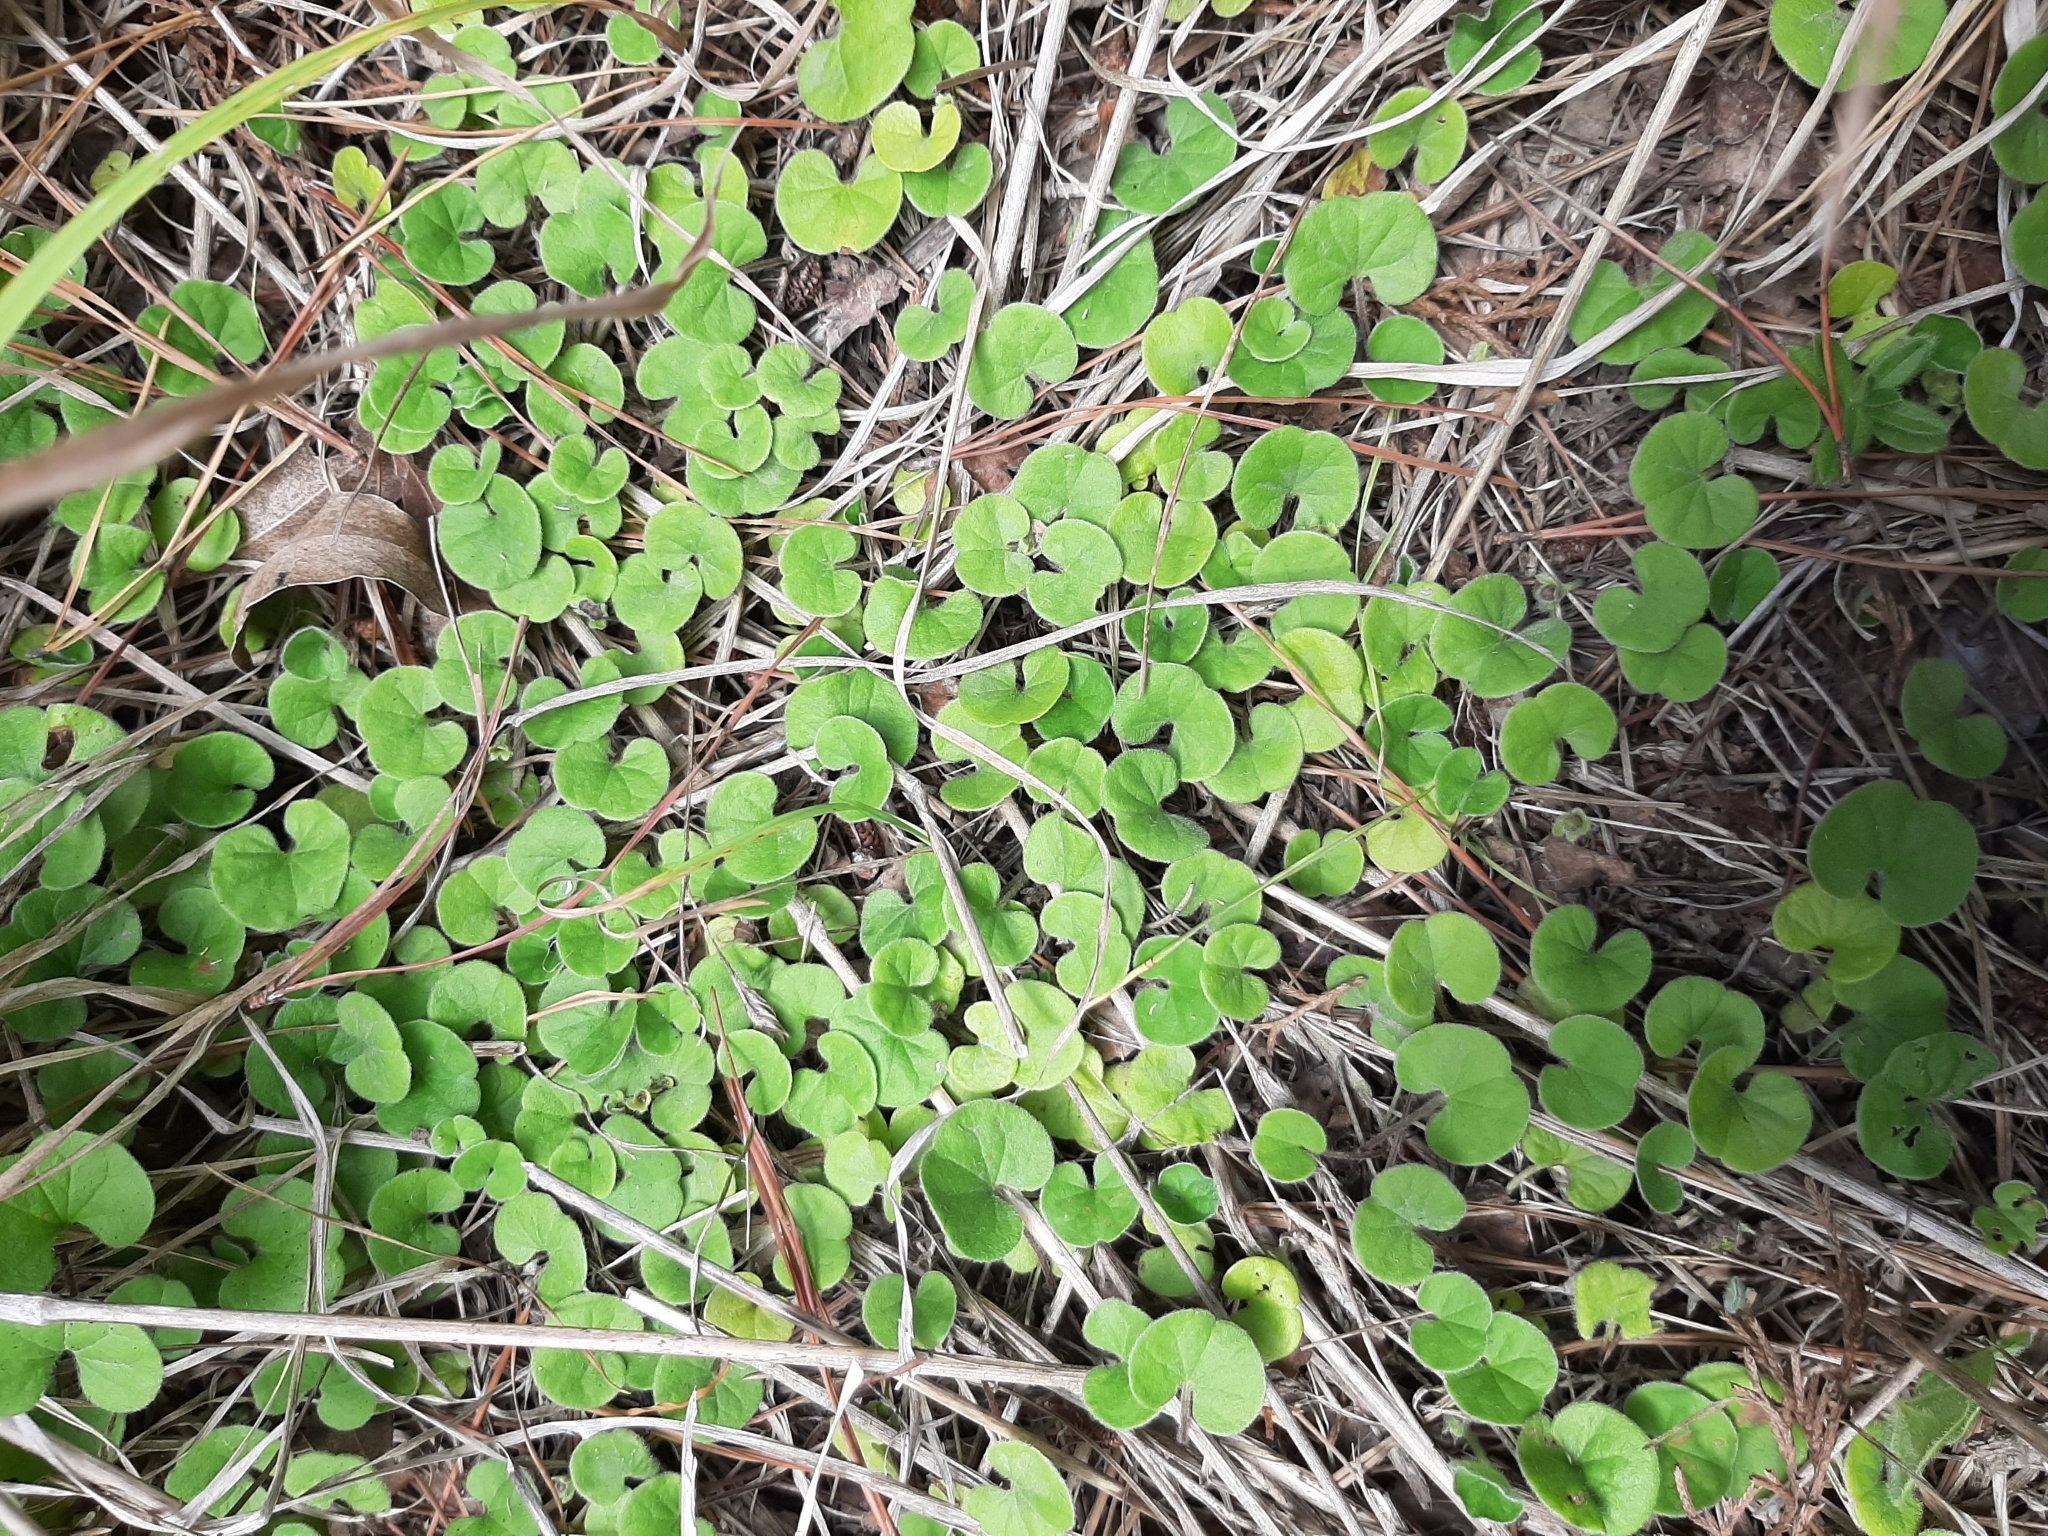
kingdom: Plantae
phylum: Tracheophyta
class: Magnoliopsida
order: Solanales
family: Convolvulaceae
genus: Dichondra
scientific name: Dichondra repens
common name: Kidneyweed
